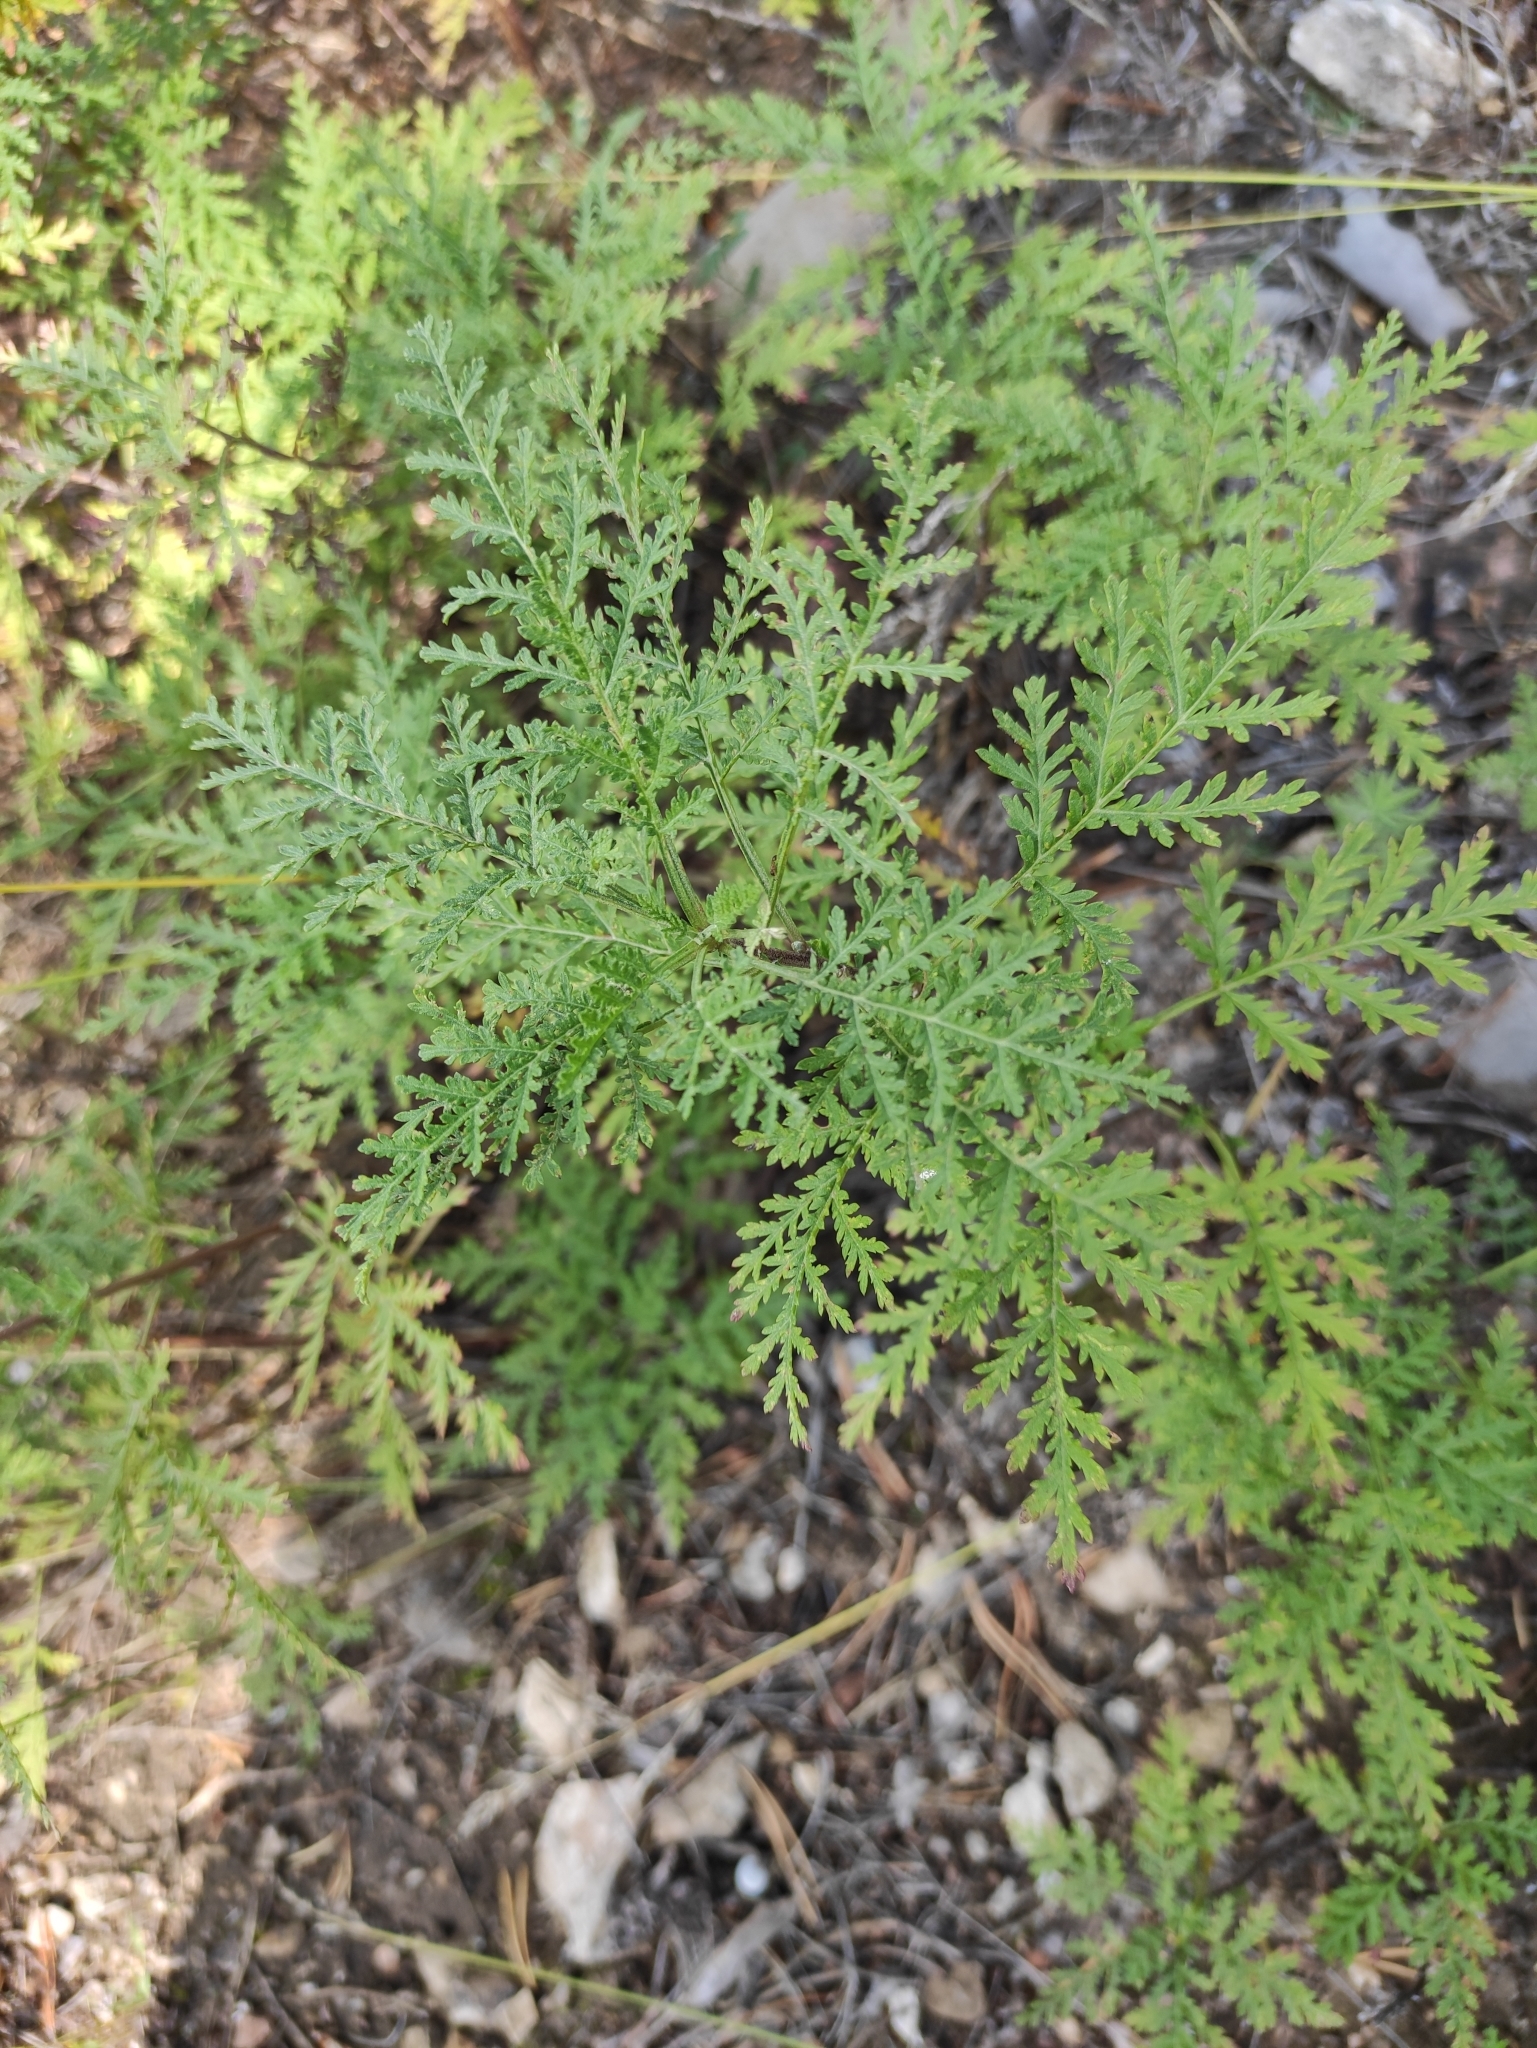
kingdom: Plantae
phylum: Tracheophyta
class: Magnoliopsida
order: Asterales
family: Asteraceae
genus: Artemisia
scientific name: Artemisia gmelinii
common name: Gmelin's wormwood
